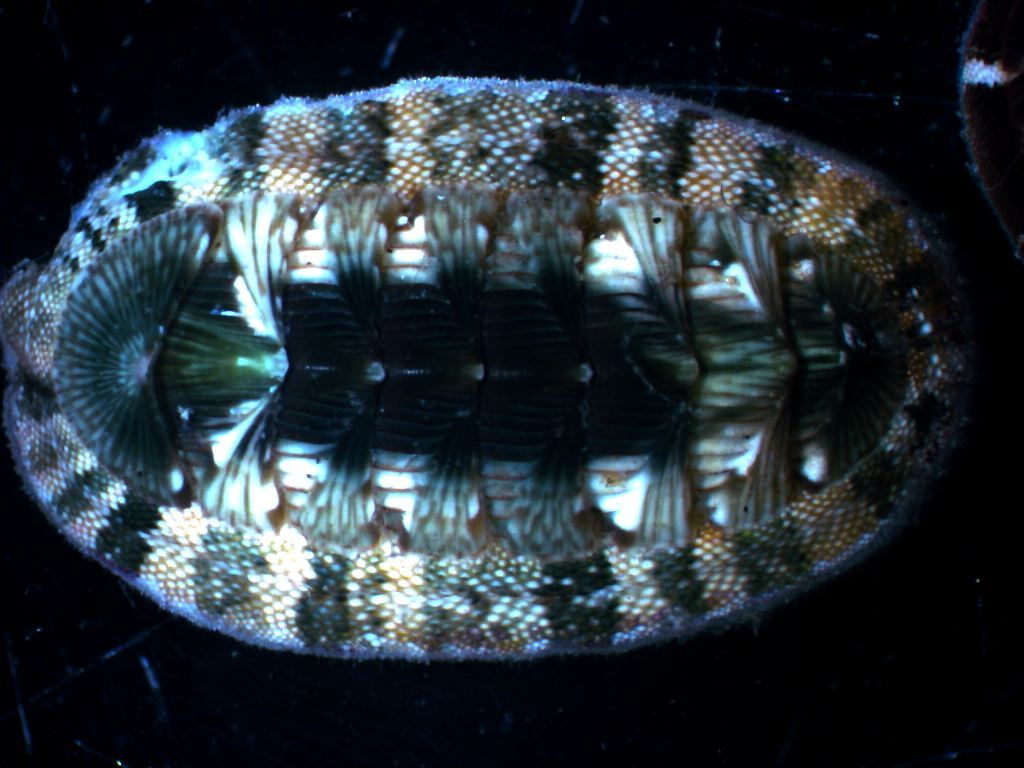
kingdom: Animalia
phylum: Mollusca
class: Polyplacophora
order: Chitonida
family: Chitonidae
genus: Rhyssoplax
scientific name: Rhyssoplax olivacea
